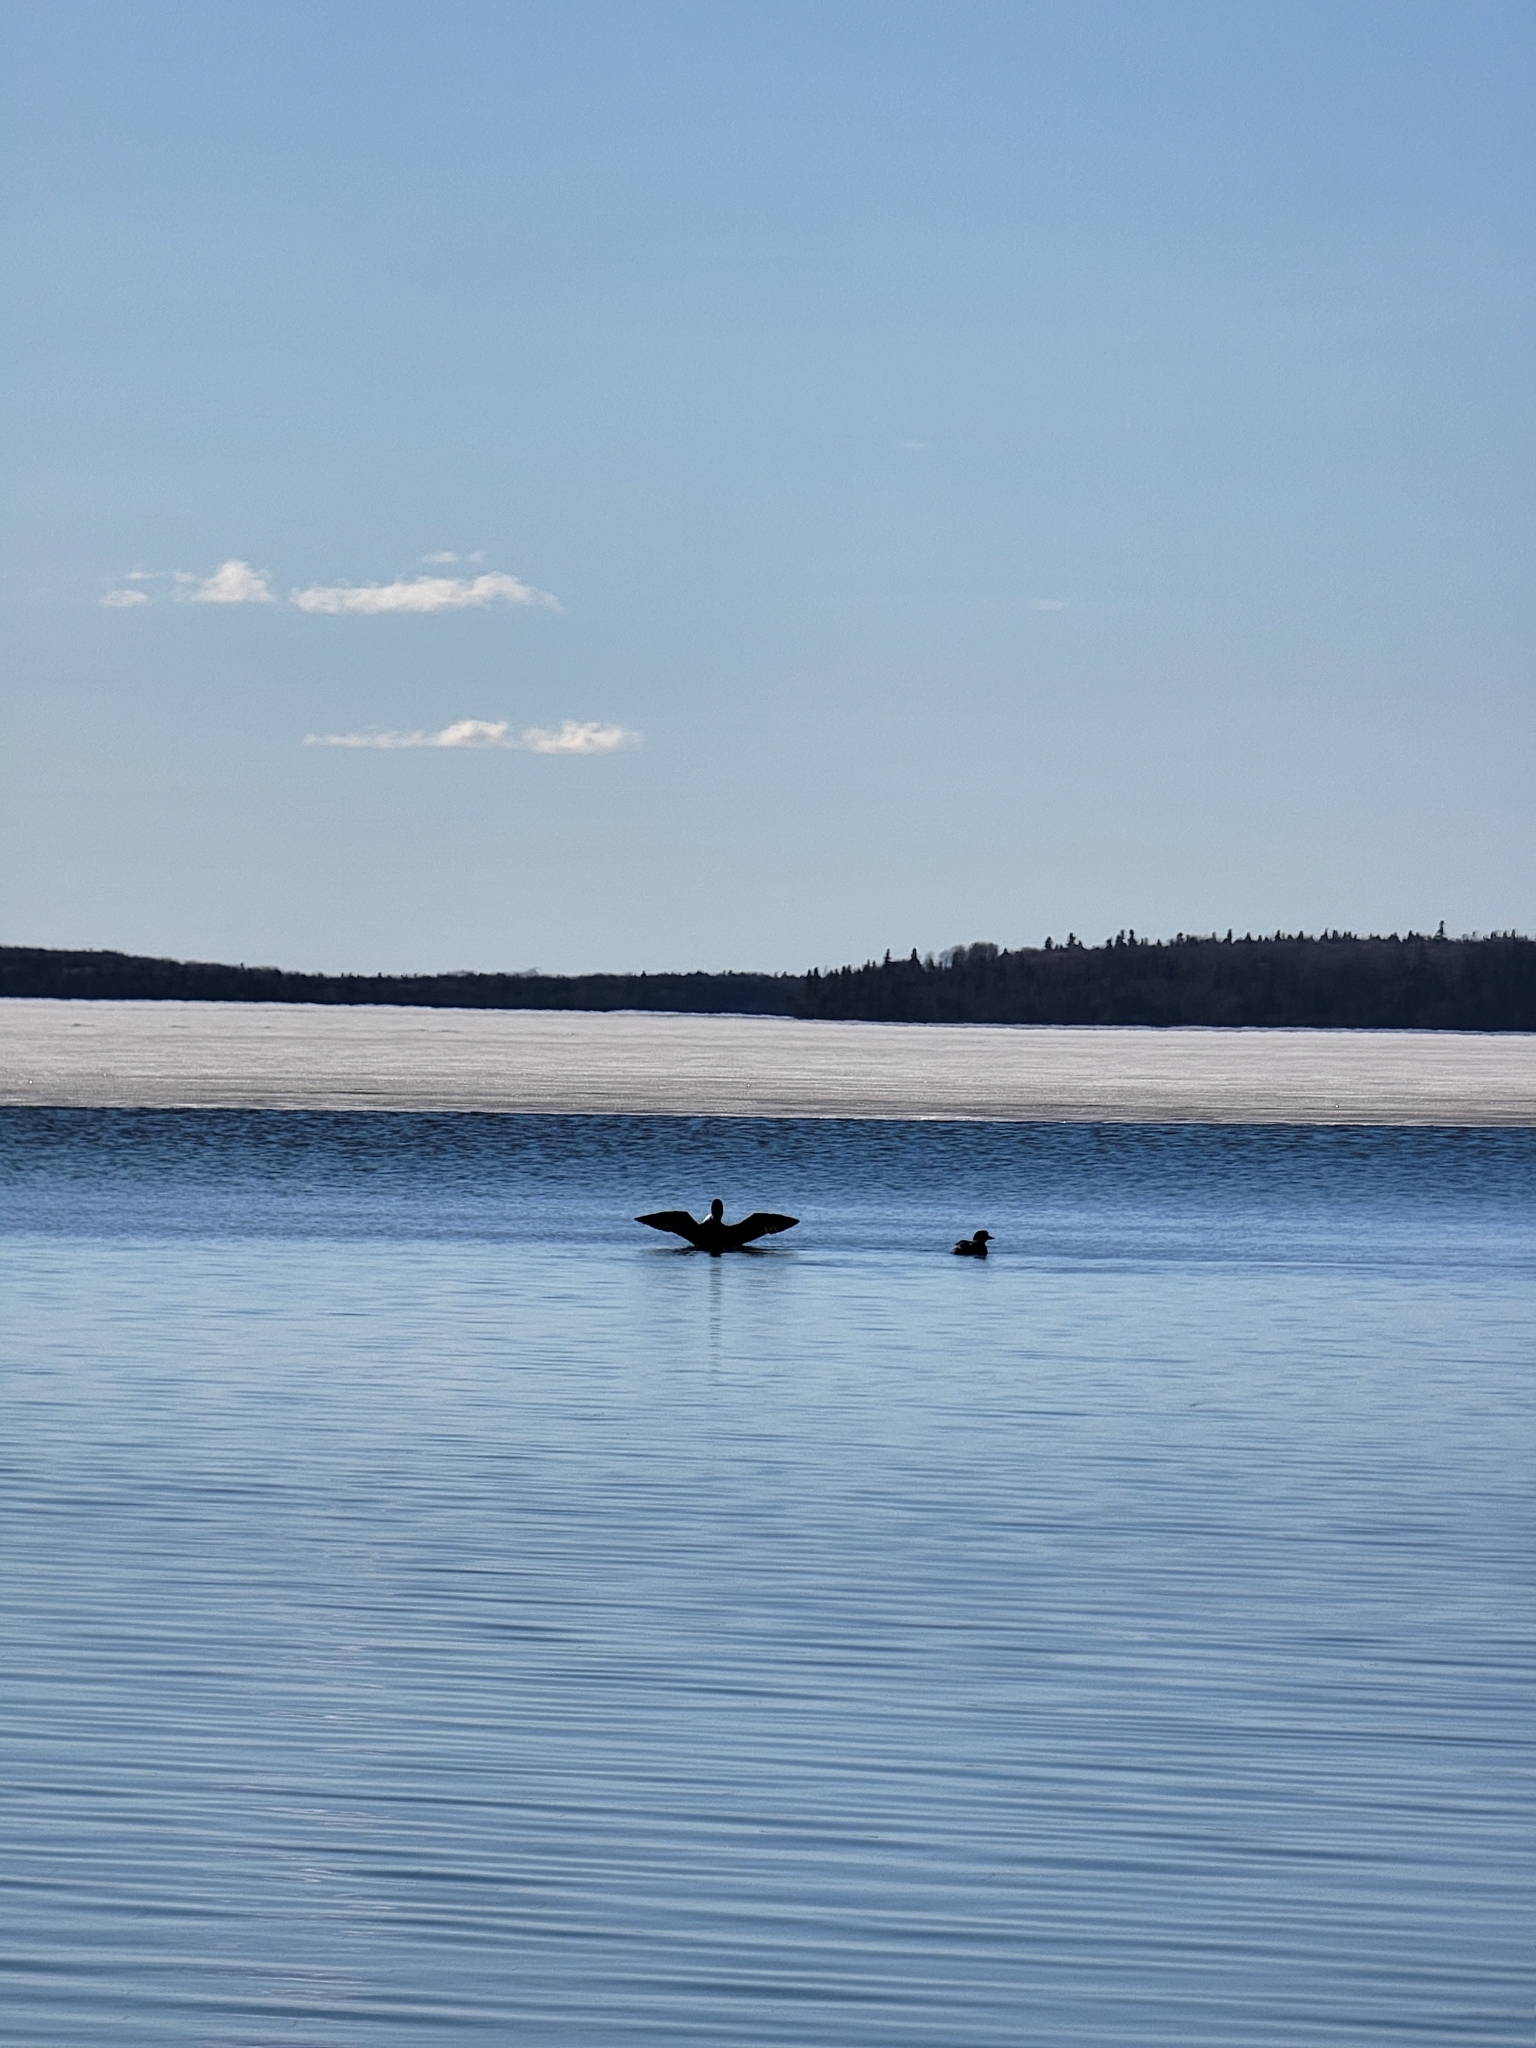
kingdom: Animalia
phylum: Chordata
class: Aves
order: Gaviiformes
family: Gaviidae
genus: Gavia
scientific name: Gavia immer
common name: Common loon
